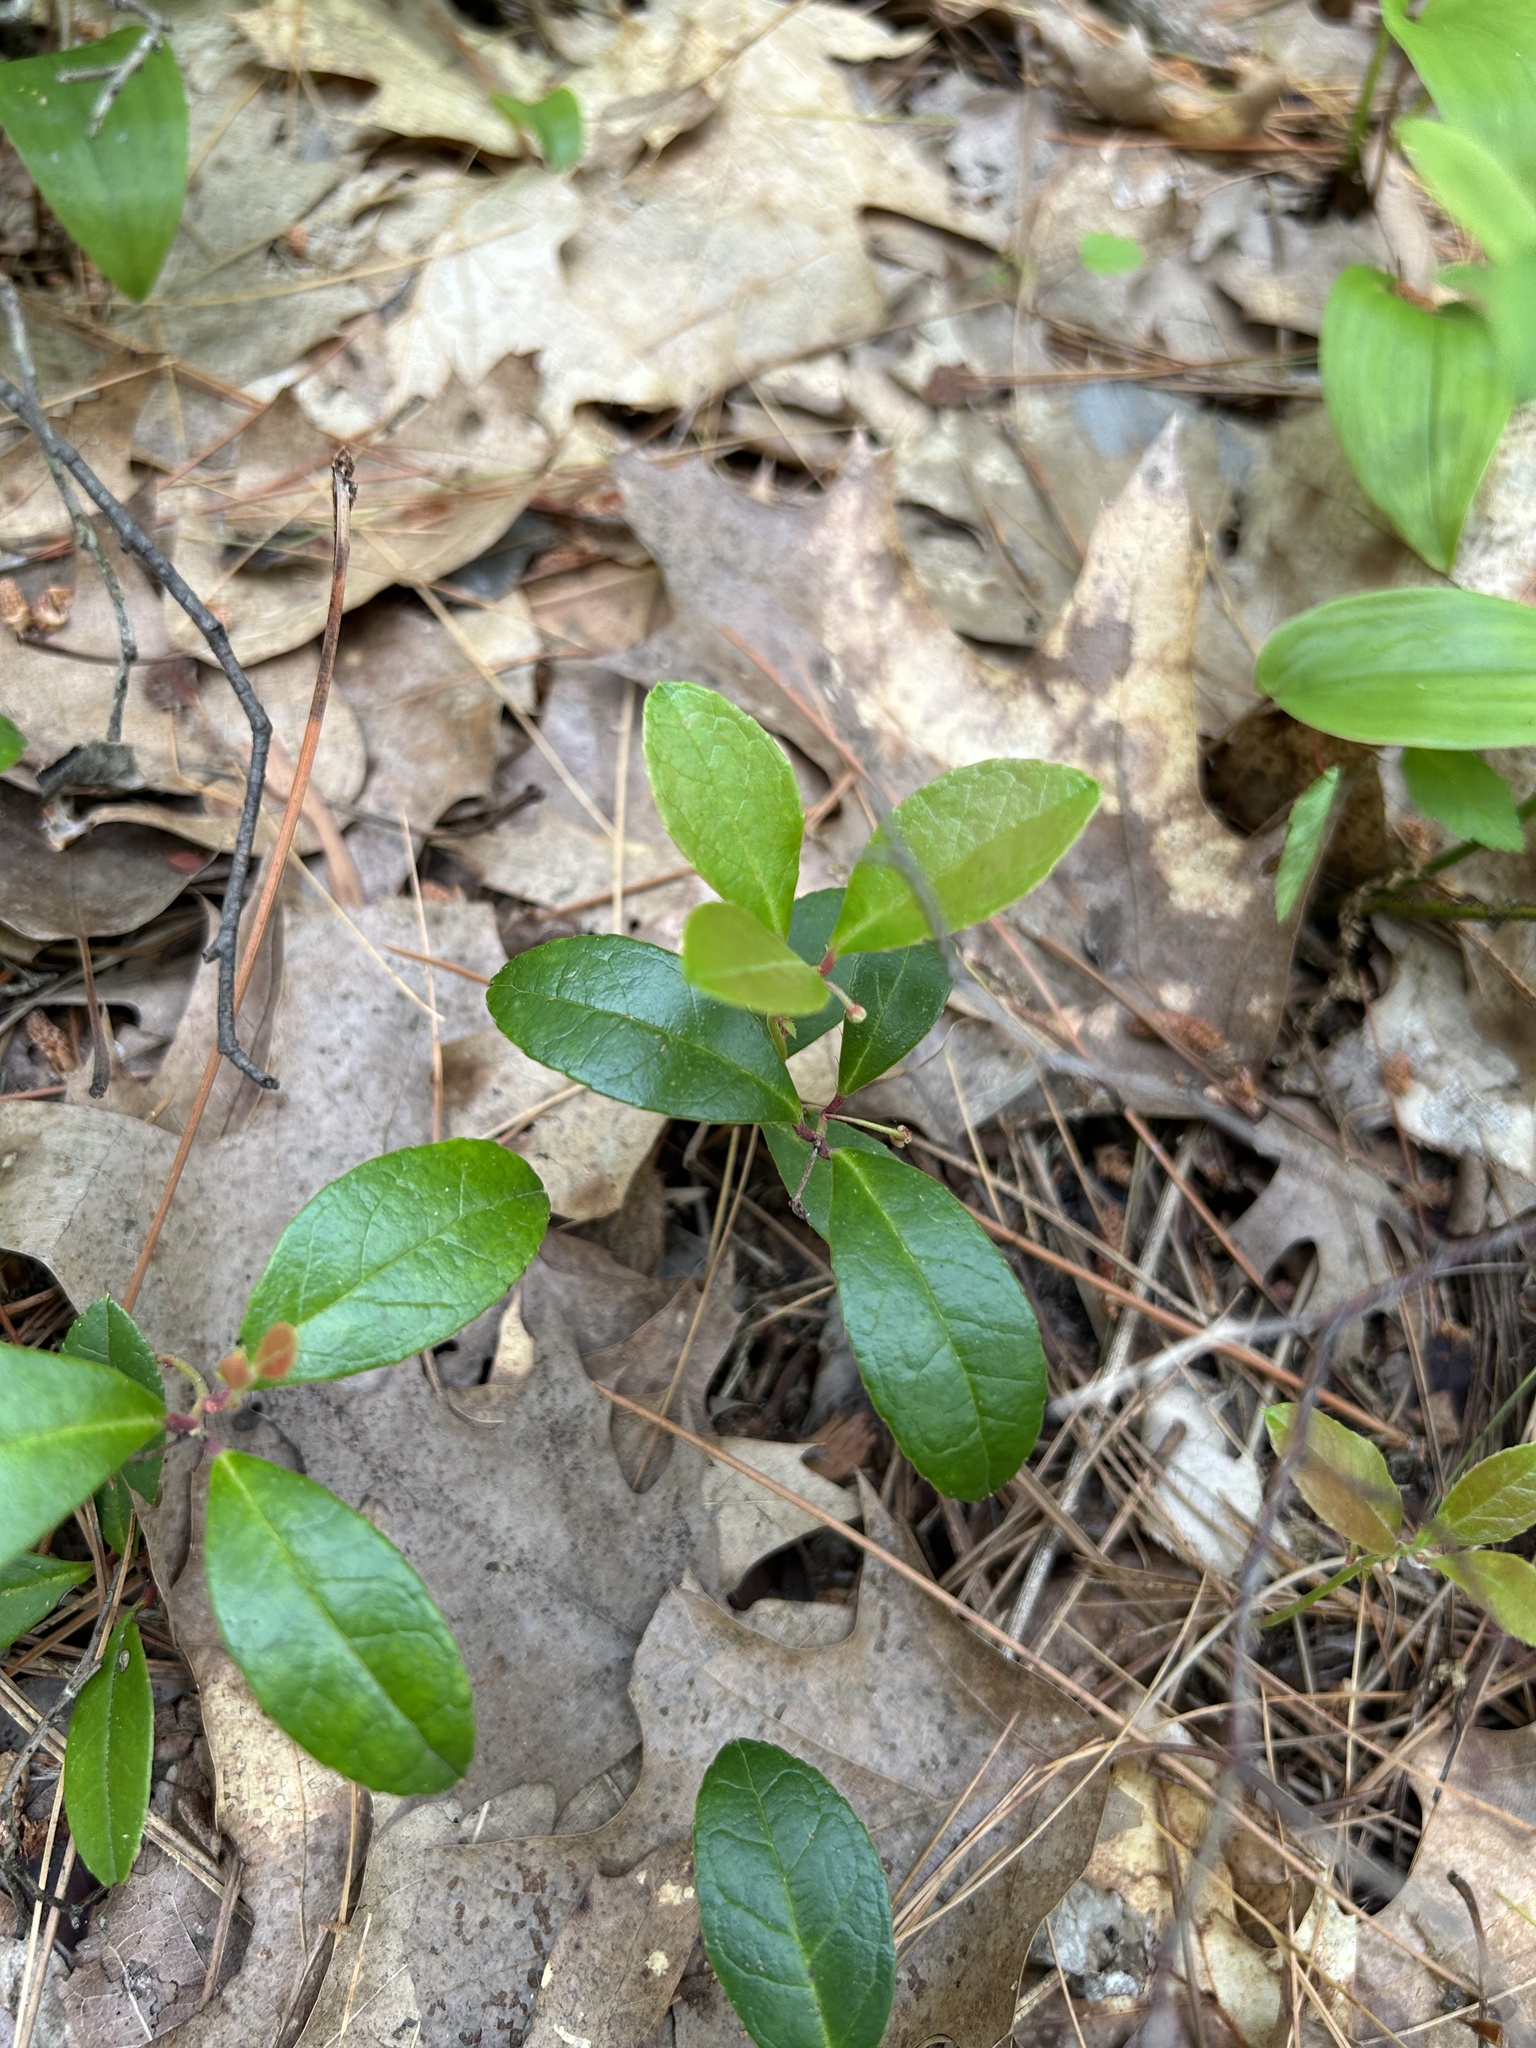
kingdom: Plantae
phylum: Tracheophyta
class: Magnoliopsida
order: Ericales
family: Ericaceae
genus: Gaultheria
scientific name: Gaultheria procumbens
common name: Checkerberry
